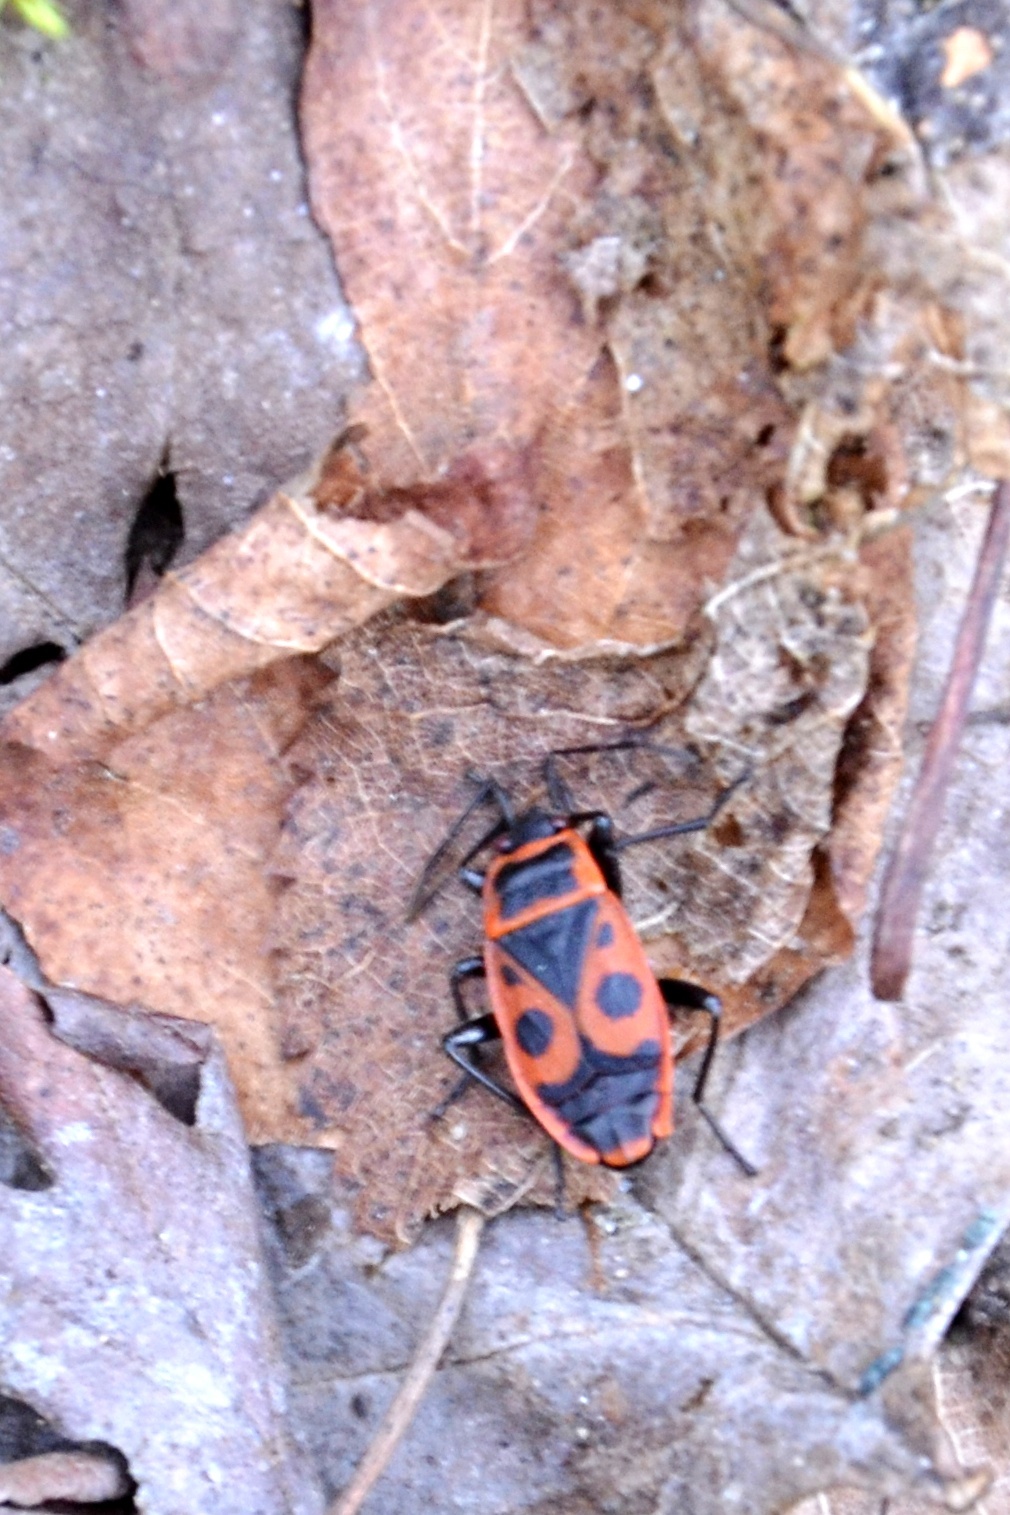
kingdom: Animalia
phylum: Arthropoda
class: Insecta
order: Hemiptera
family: Pyrrhocoridae
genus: Pyrrhocoris
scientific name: Pyrrhocoris apterus
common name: Firebug
